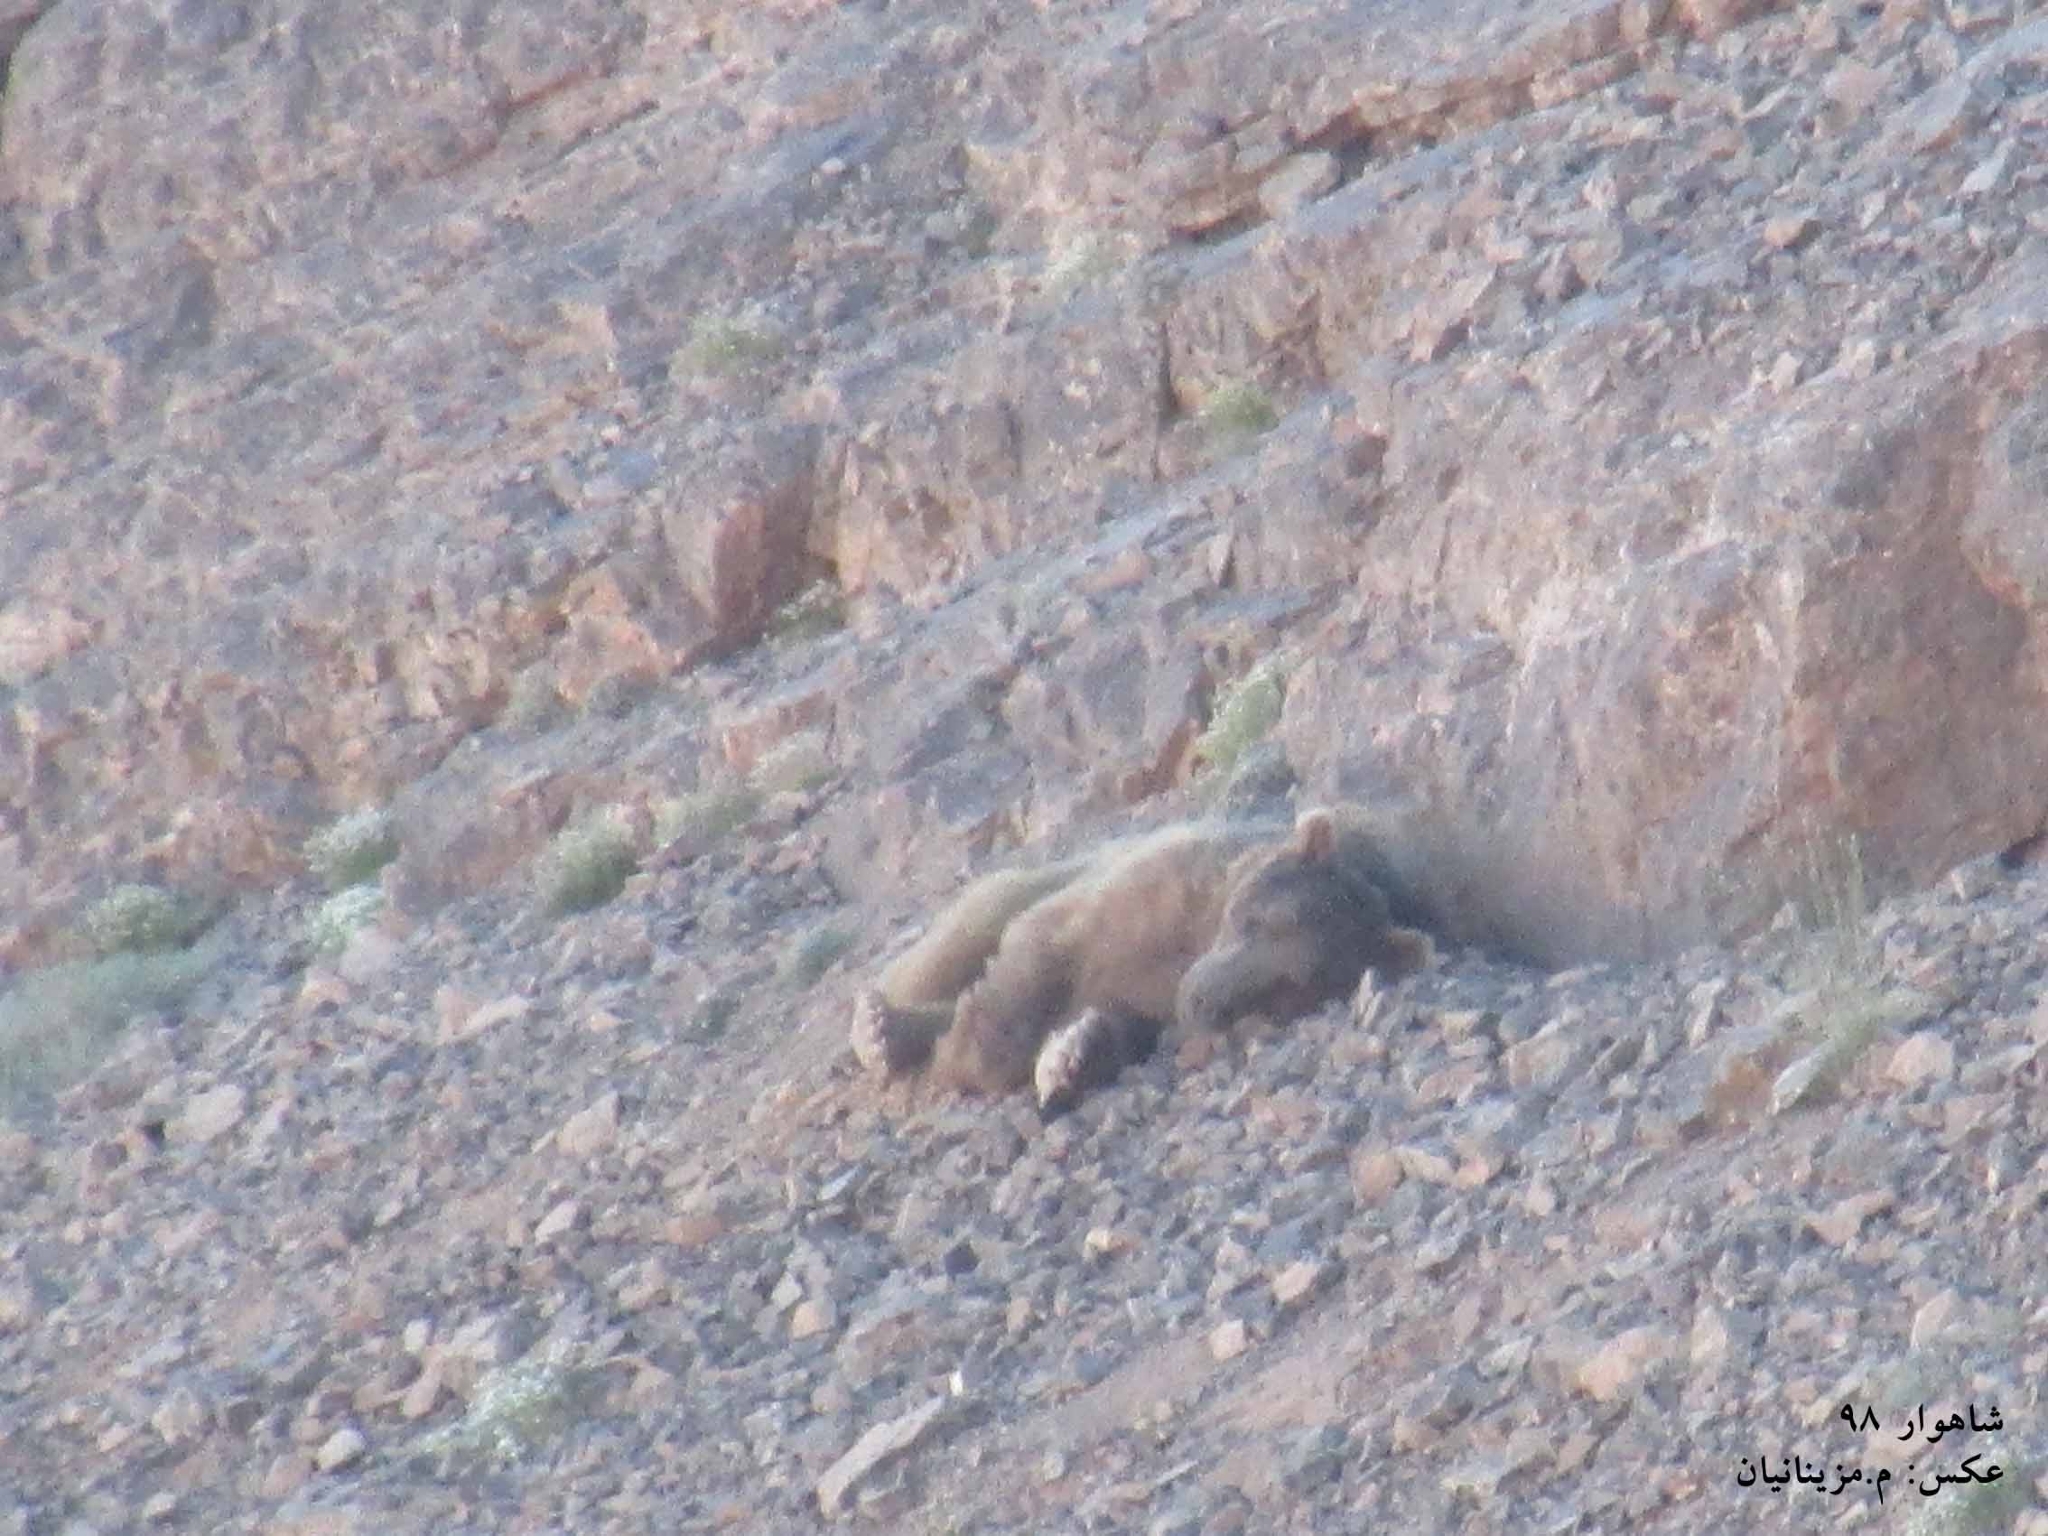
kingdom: Animalia
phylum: Chordata
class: Mammalia
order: Carnivora
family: Ursidae
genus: Ursus
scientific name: Ursus arctos
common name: Brown bear
